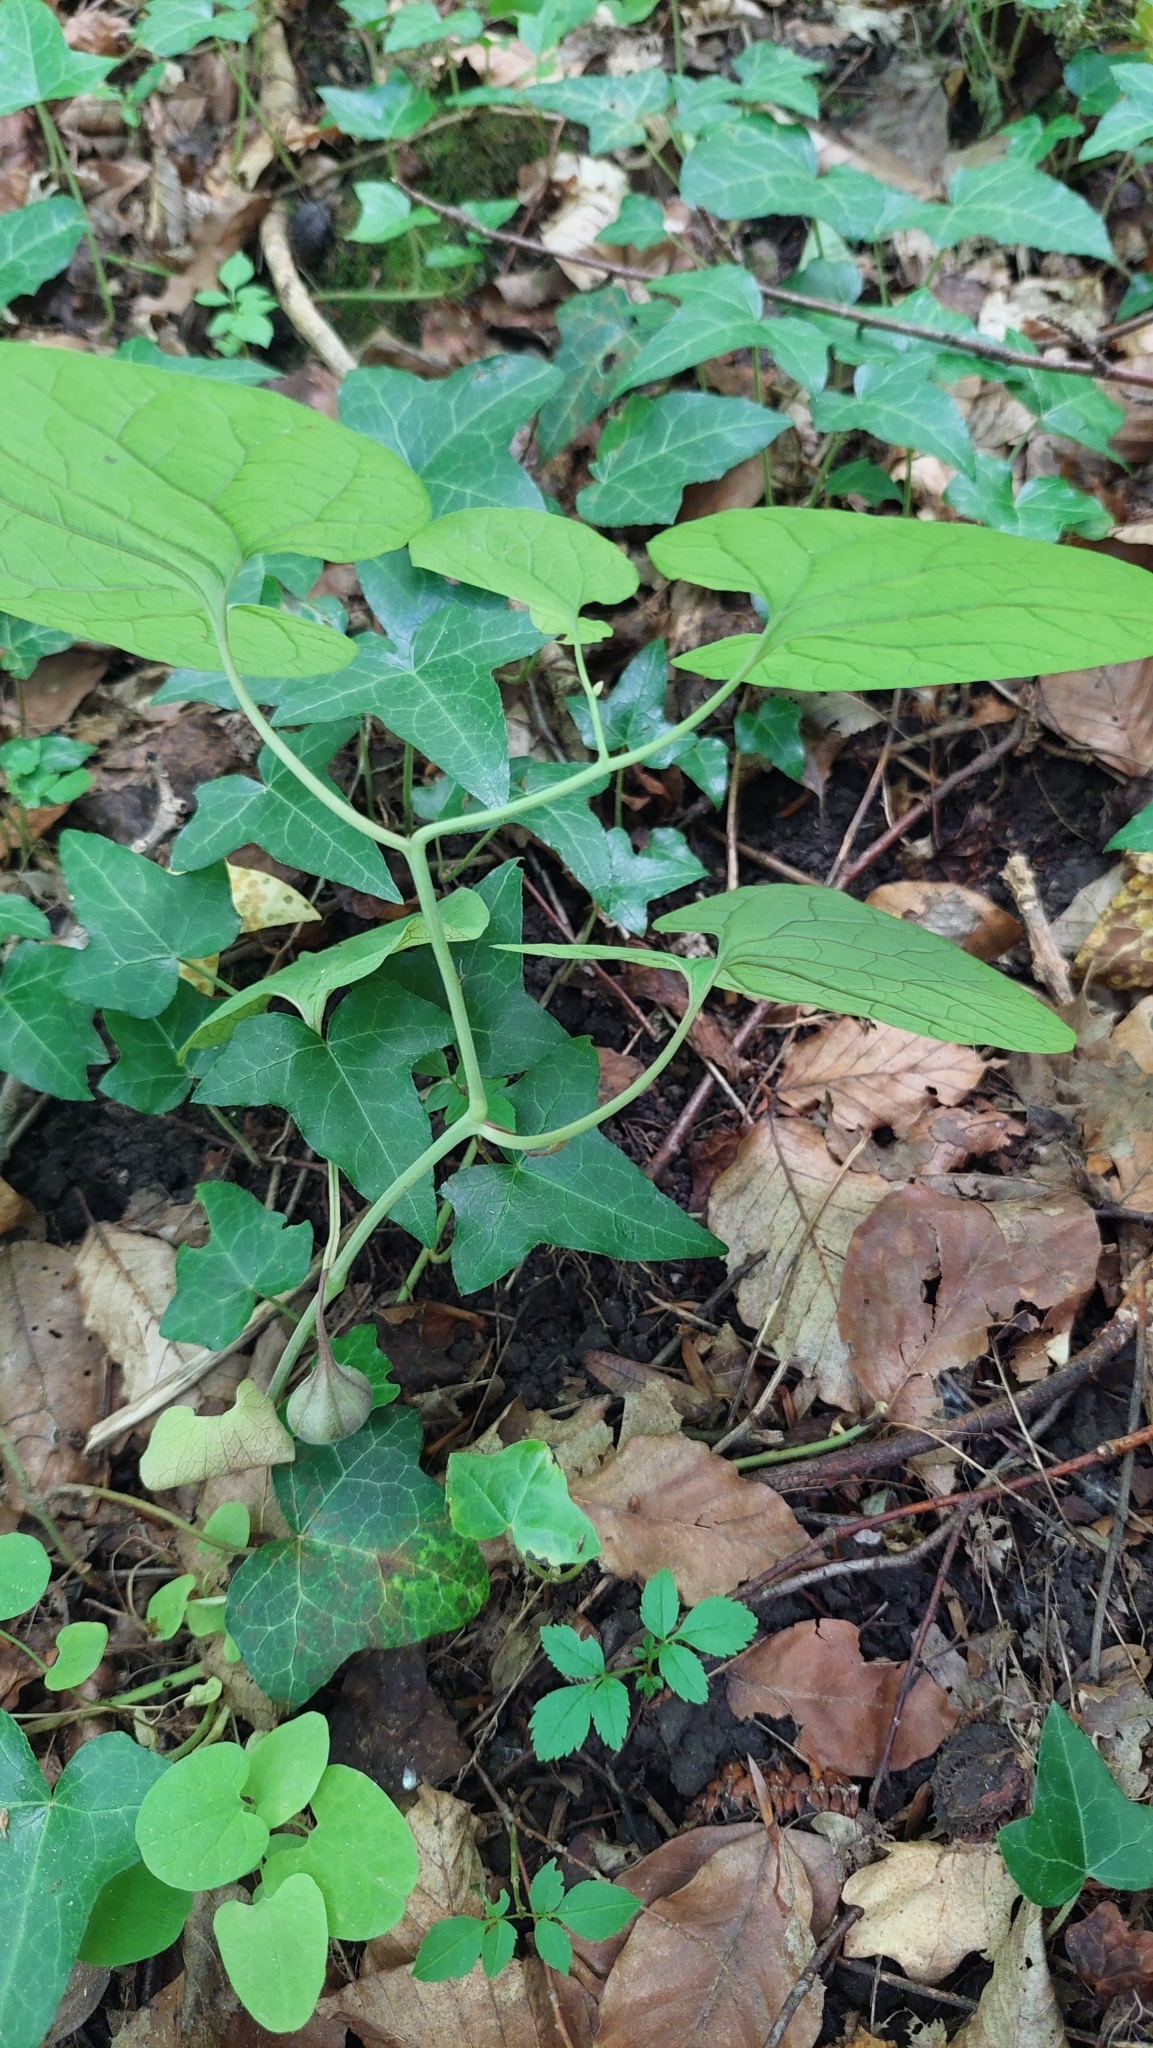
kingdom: Plantae
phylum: Tracheophyta
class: Magnoliopsida
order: Piperales
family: Aristolochiaceae
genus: Aristolochia
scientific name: Aristolochia steupii
